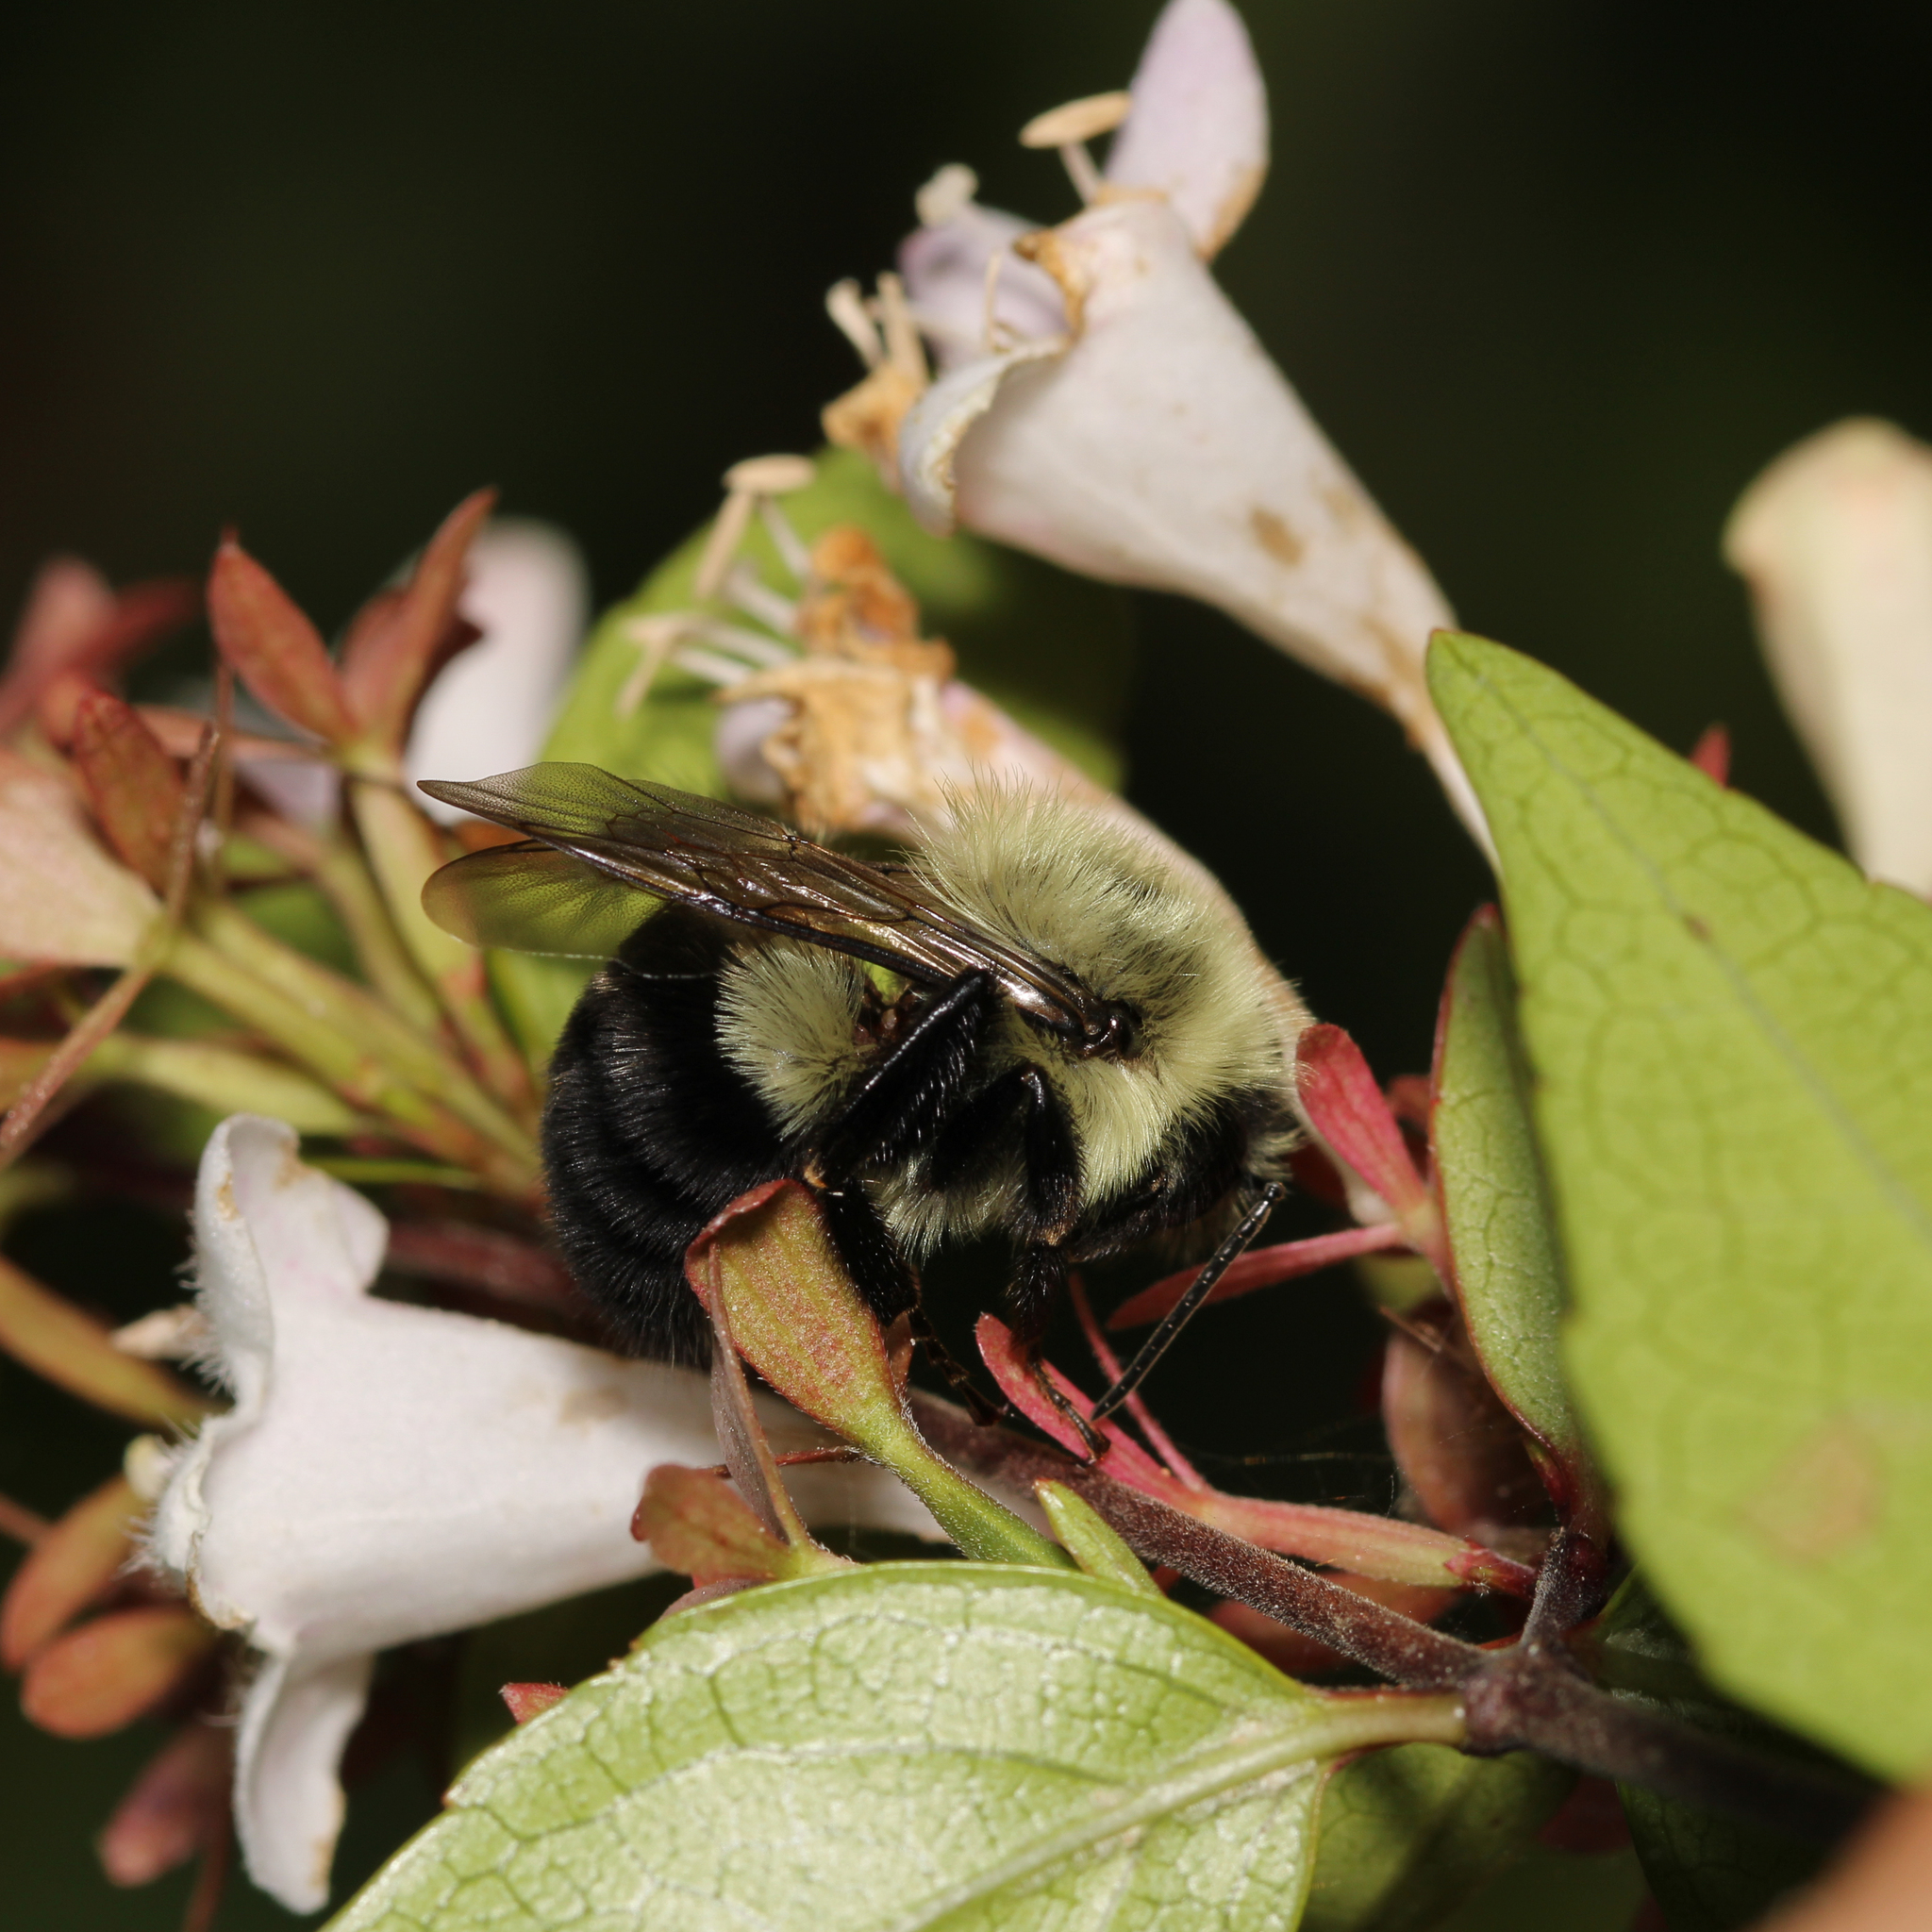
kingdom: Animalia
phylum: Arthropoda
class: Insecta
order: Hymenoptera
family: Apidae
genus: Bombus
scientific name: Bombus impatiens
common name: Common eastern bumble bee
